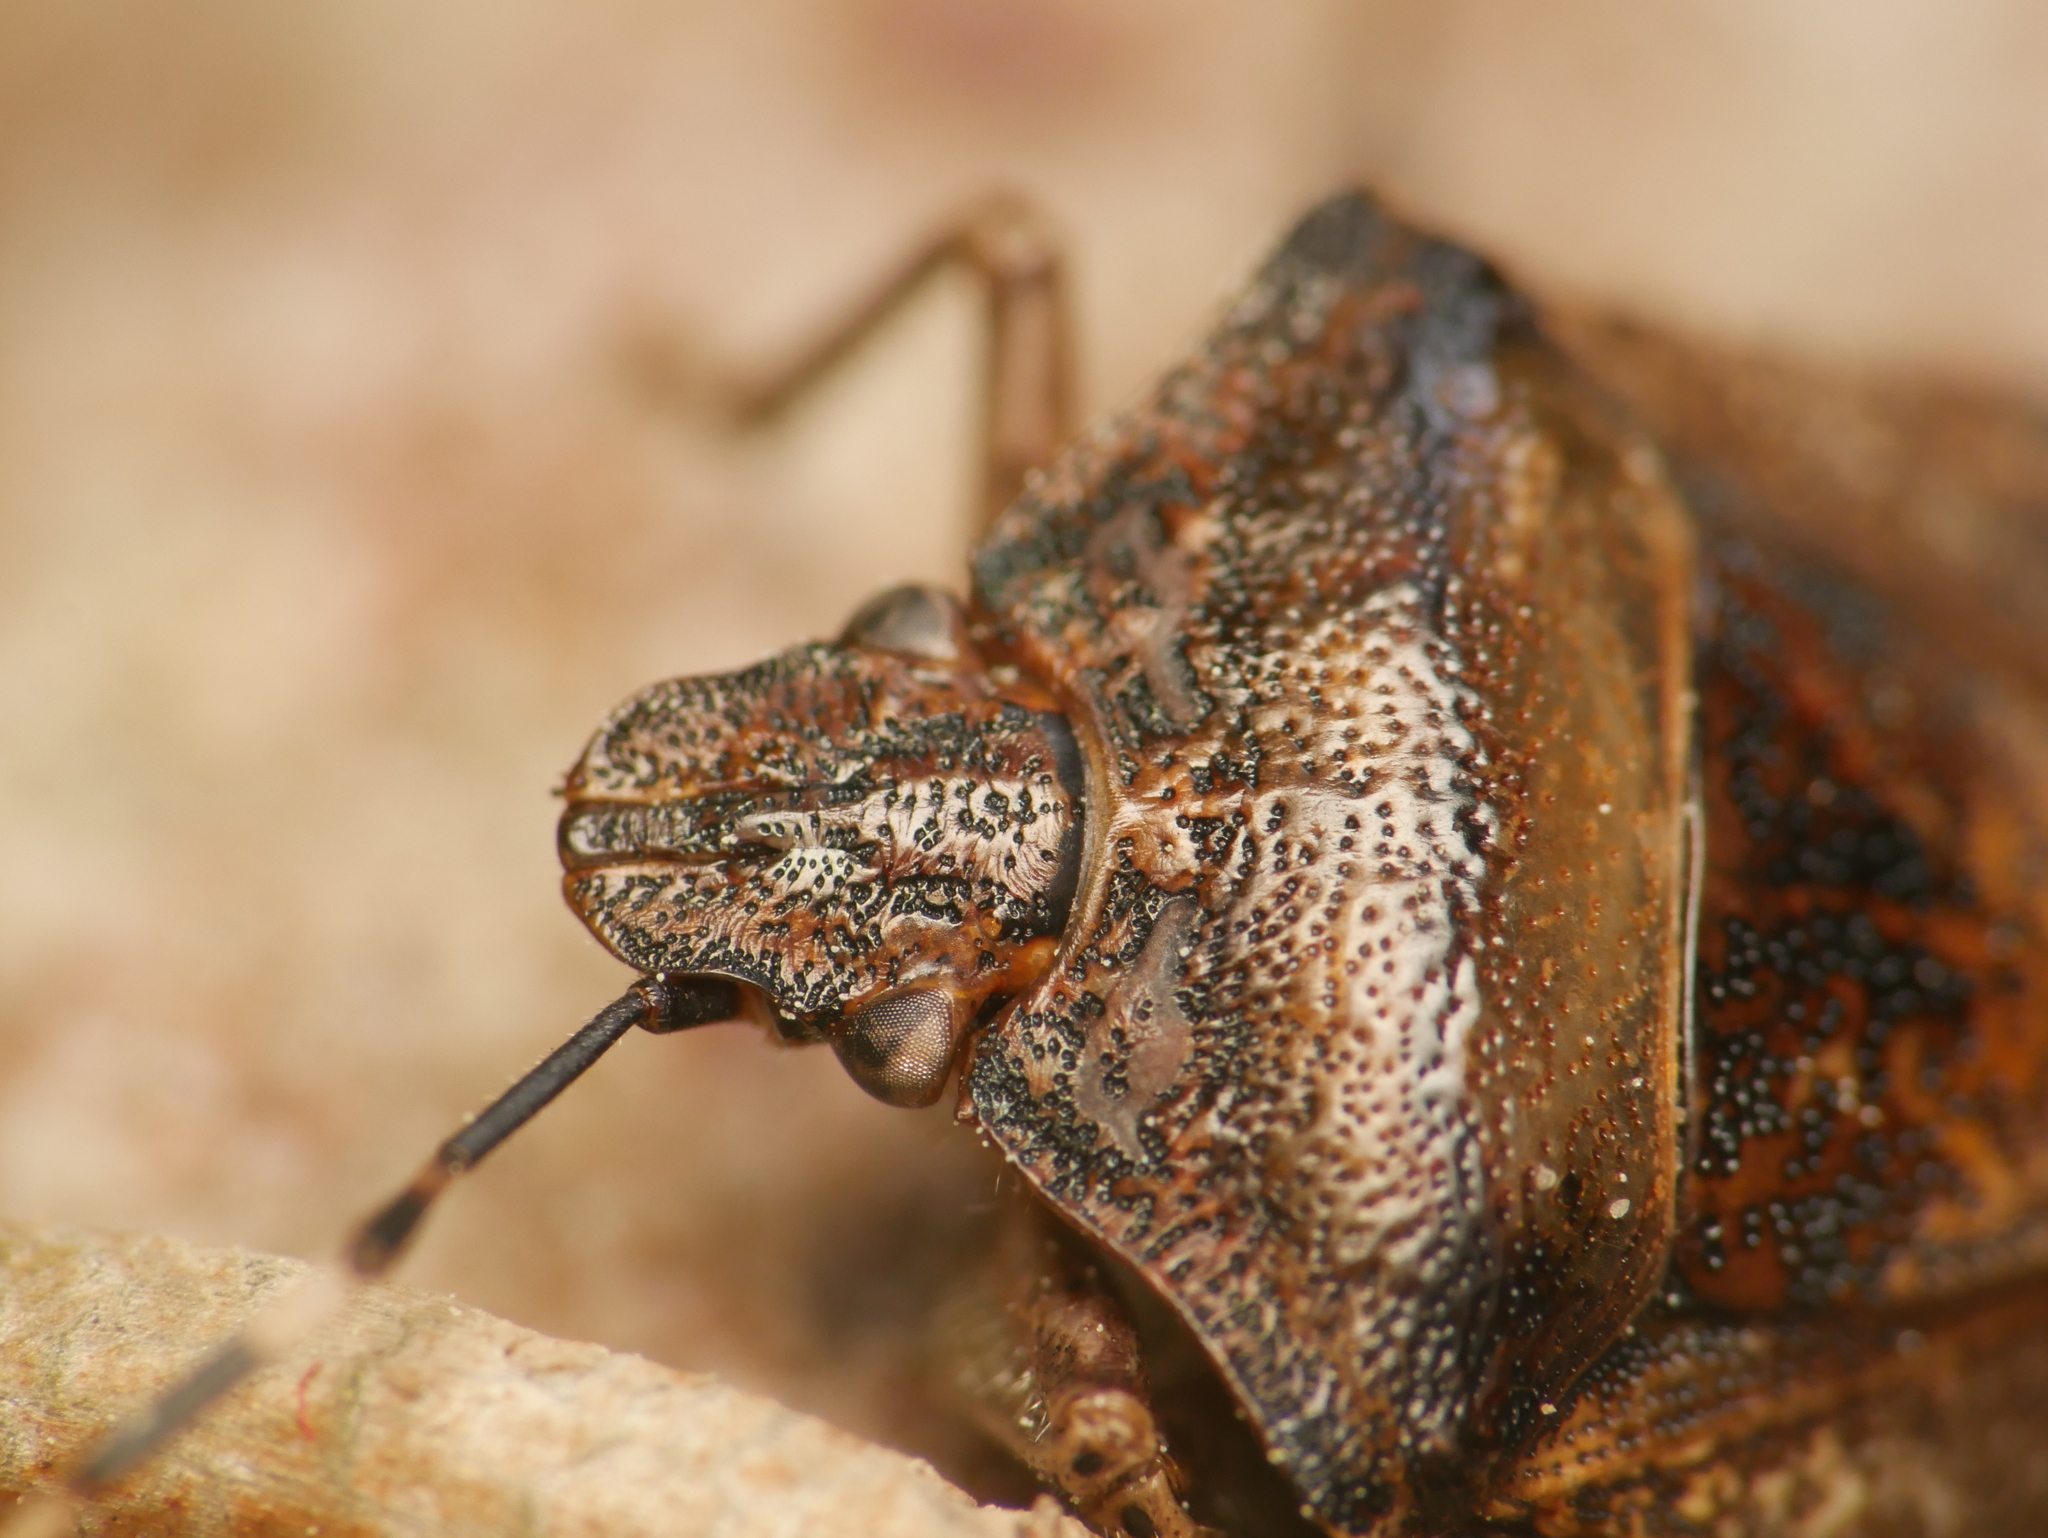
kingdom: Animalia
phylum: Arthropoda
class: Insecta
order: Hemiptera
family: Pentatomidae
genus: Rhaphigaster
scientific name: Rhaphigaster nebulosa
